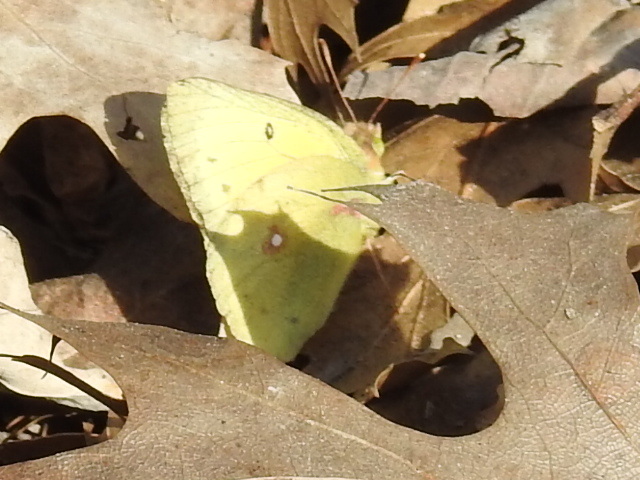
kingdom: Animalia
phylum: Arthropoda
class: Insecta
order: Lepidoptera
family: Pieridae
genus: Colias
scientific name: Colias eurytheme
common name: Alfalfa butterfly
